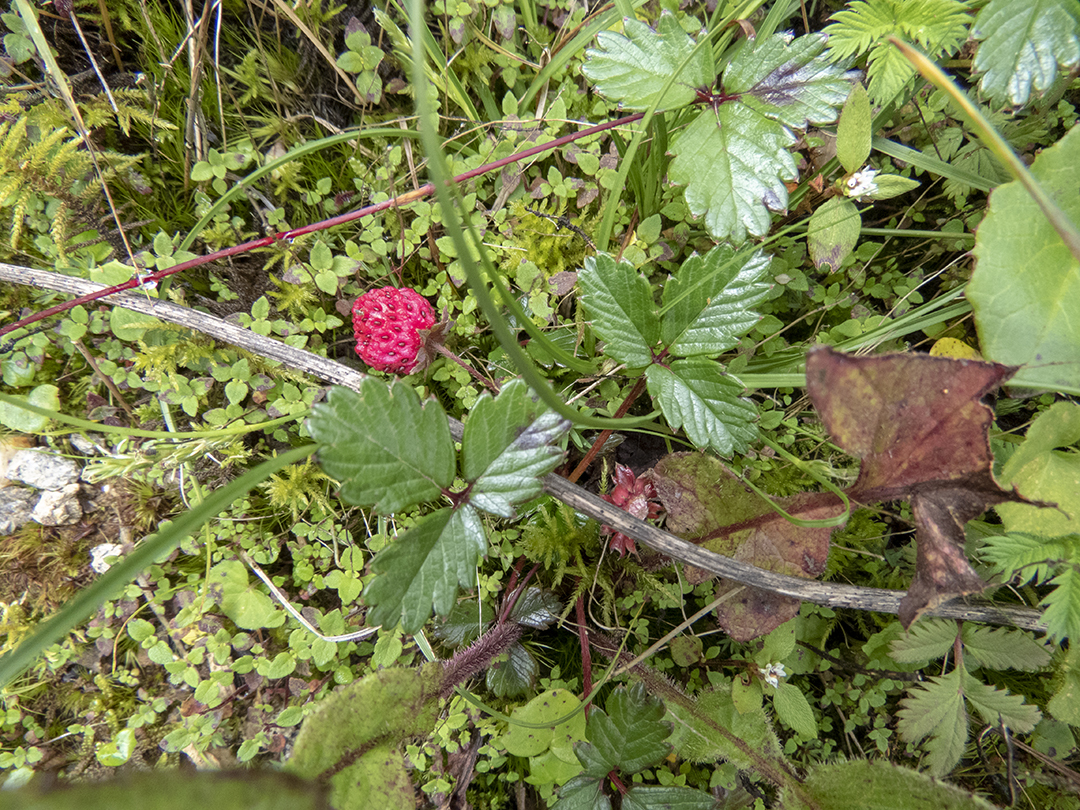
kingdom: Plantae
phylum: Tracheophyta
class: Magnoliopsida
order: Rosales
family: Rosaceae
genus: Fragaria
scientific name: Fragaria daltoniana
